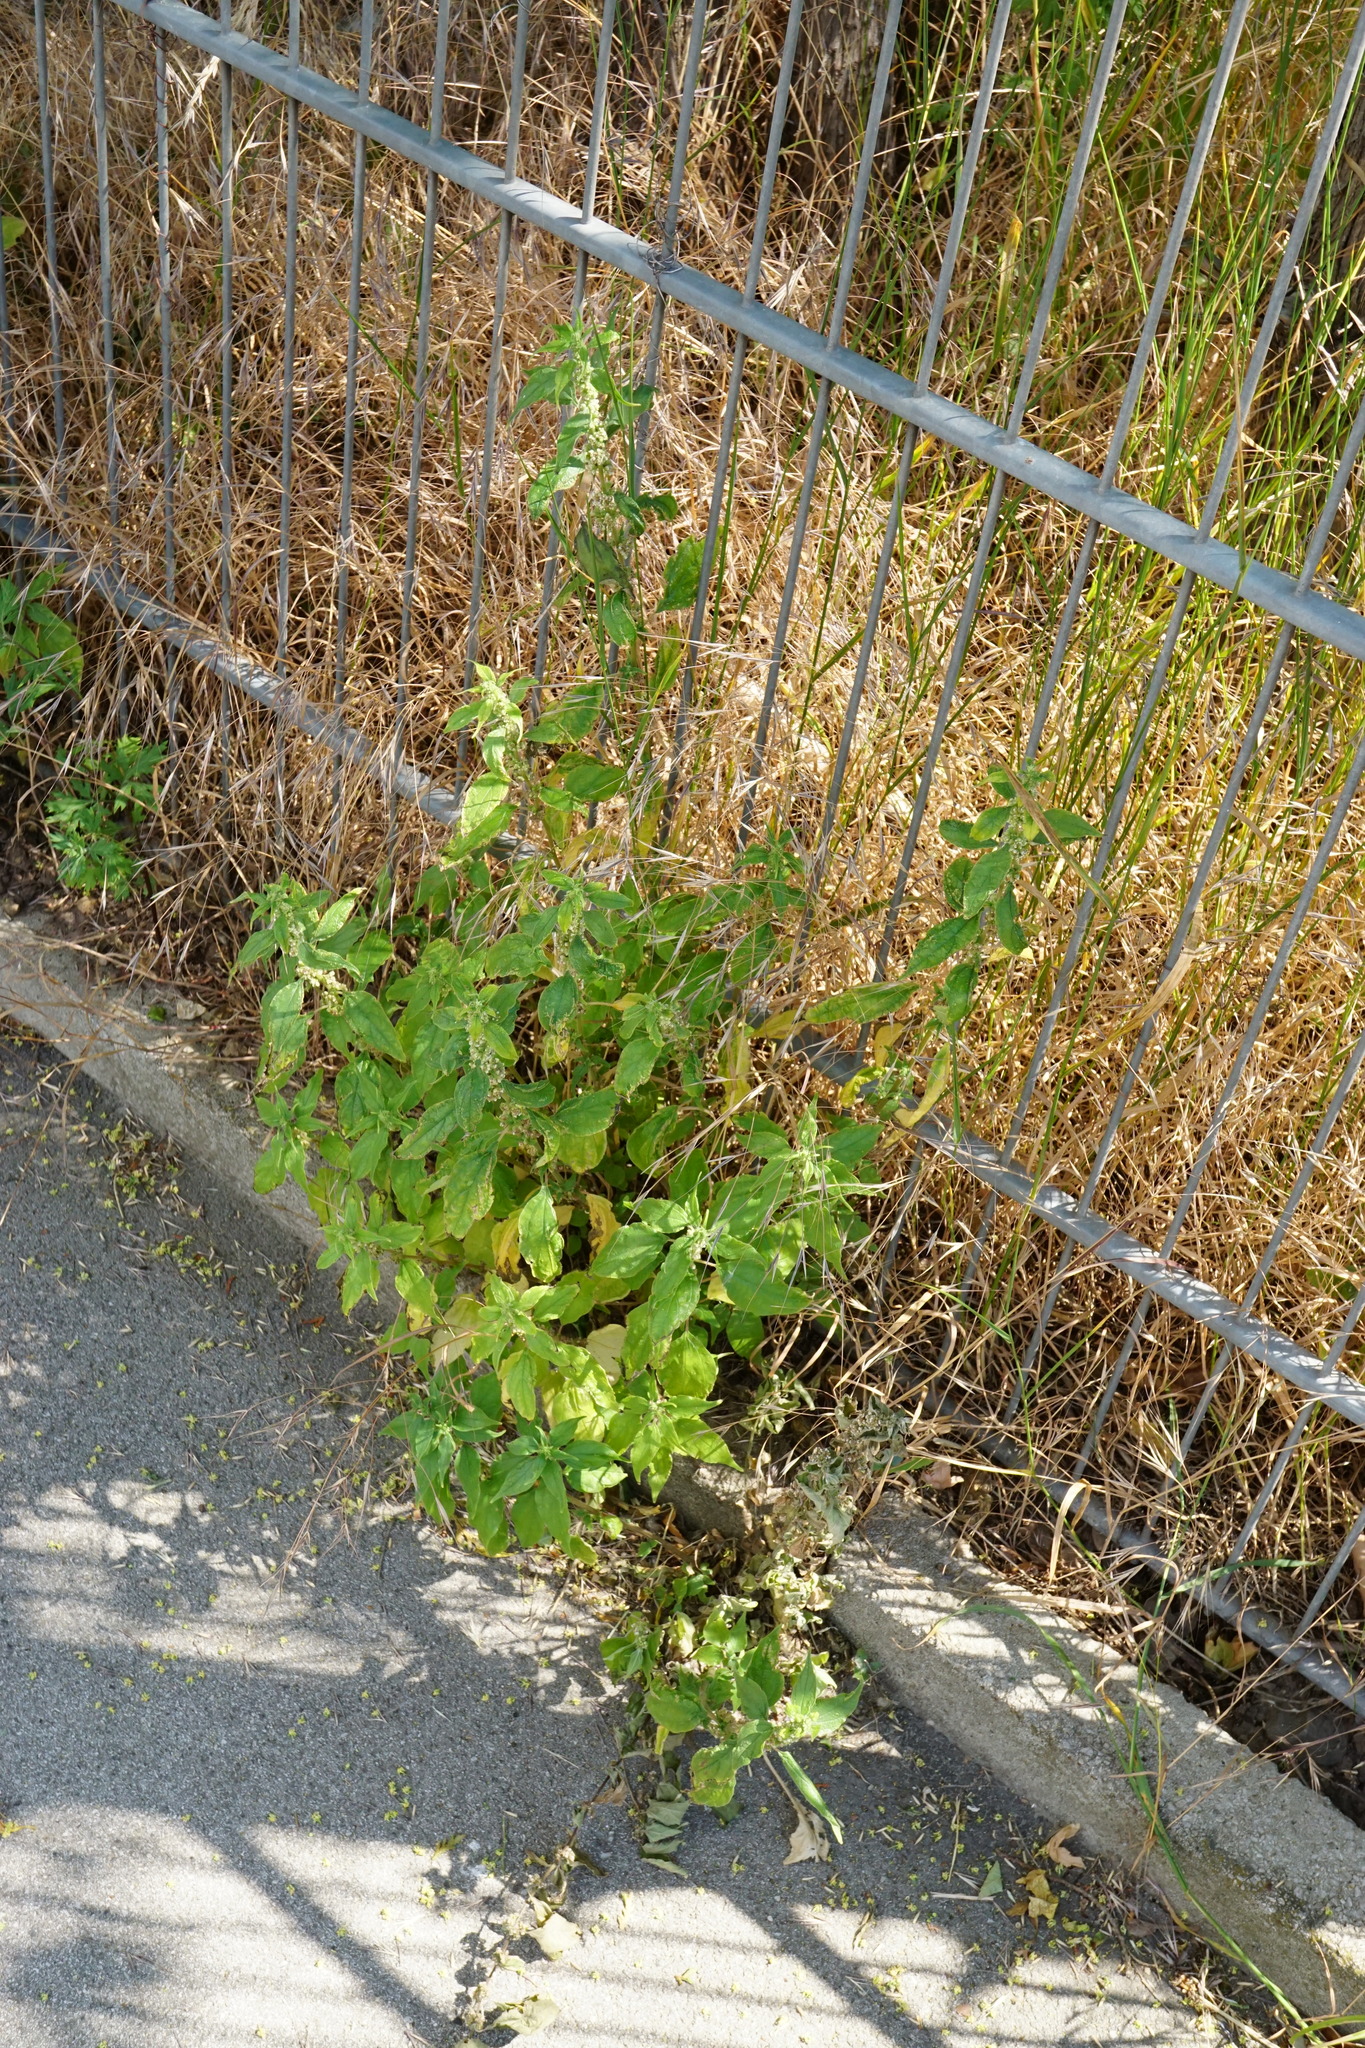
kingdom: Plantae
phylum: Tracheophyta
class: Magnoliopsida
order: Rosales
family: Urticaceae
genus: Parietaria
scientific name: Parietaria officinalis
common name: Eastern pellitory-of-the-wall
